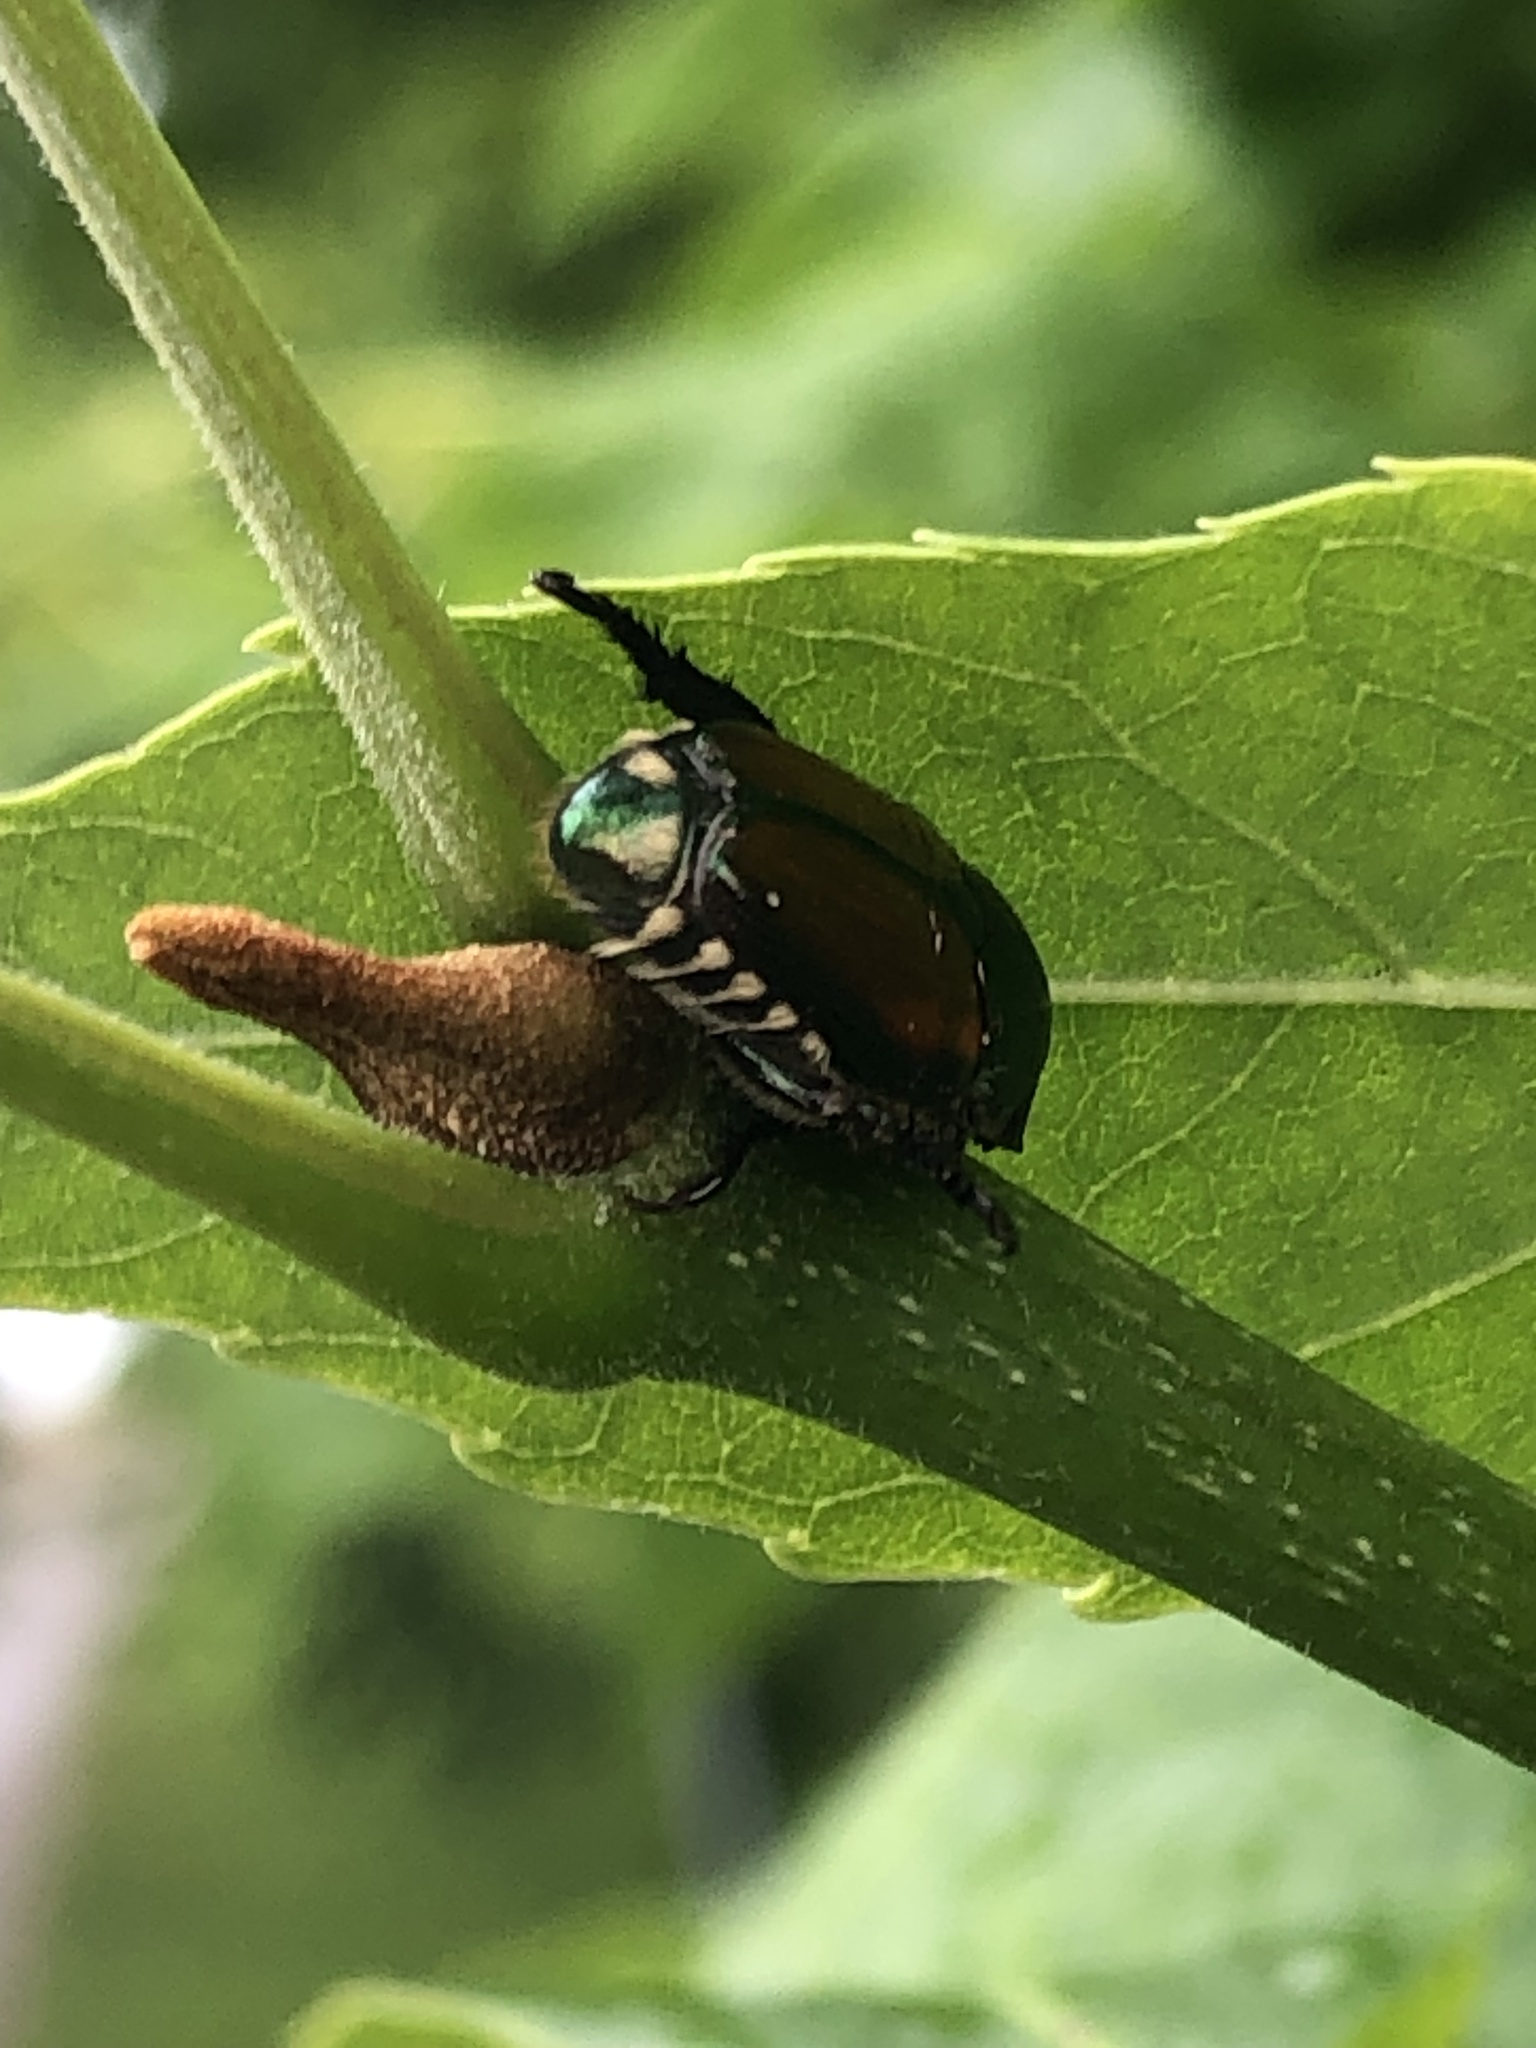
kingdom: Animalia
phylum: Arthropoda
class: Insecta
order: Coleoptera
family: Scarabaeidae
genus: Popillia
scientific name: Popillia japonica
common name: Japanese beetle
